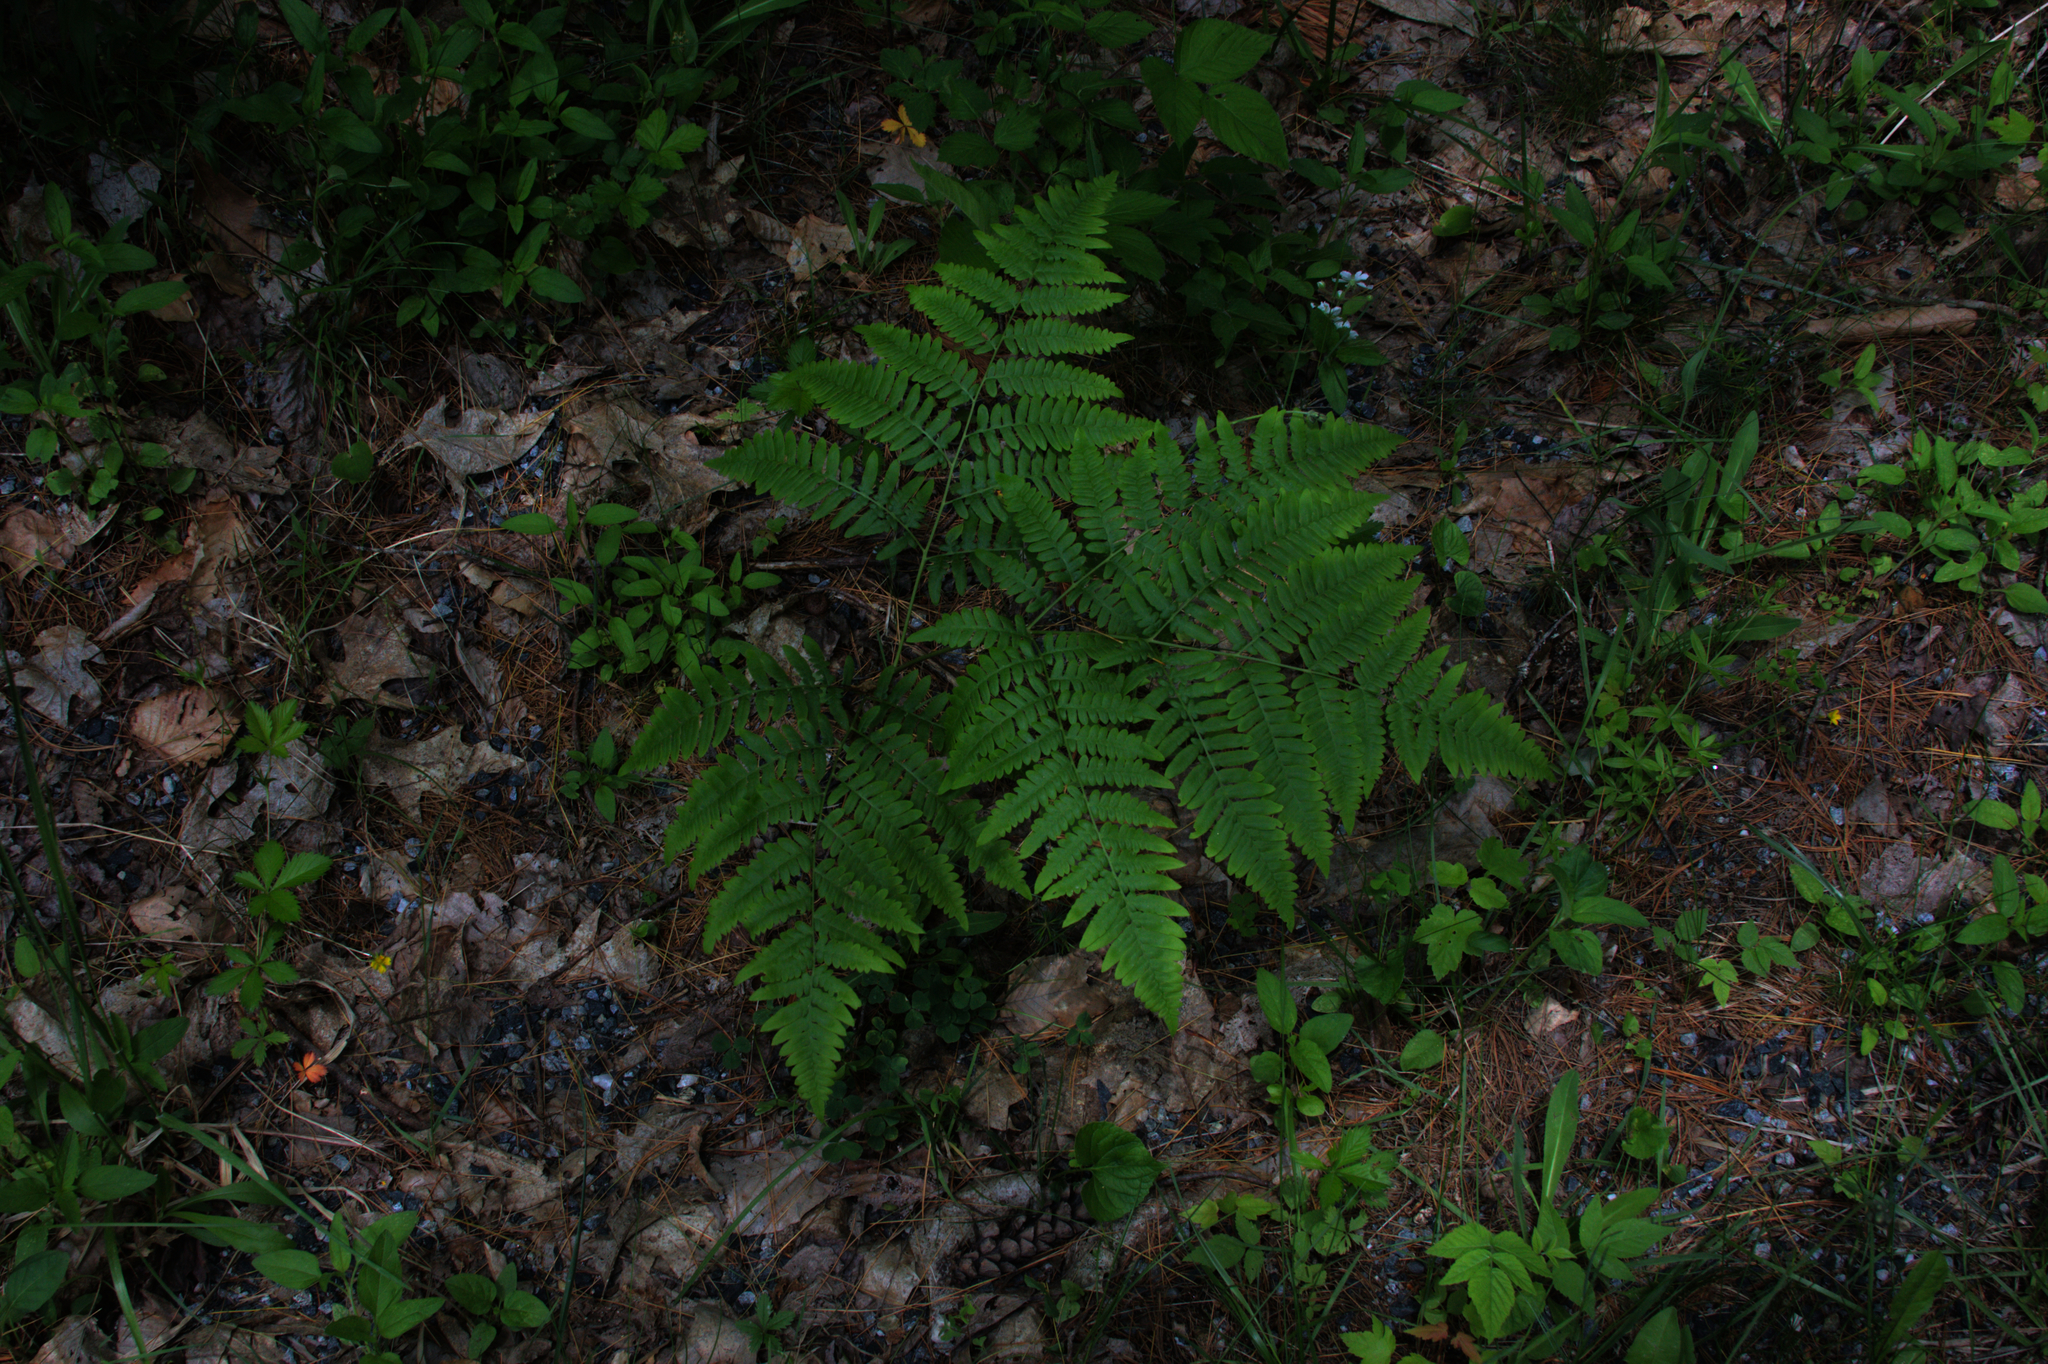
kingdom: Plantae
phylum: Tracheophyta
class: Polypodiopsida
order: Polypodiales
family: Dennstaedtiaceae
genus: Pteridium
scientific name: Pteridium aquilinum
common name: Bracken
